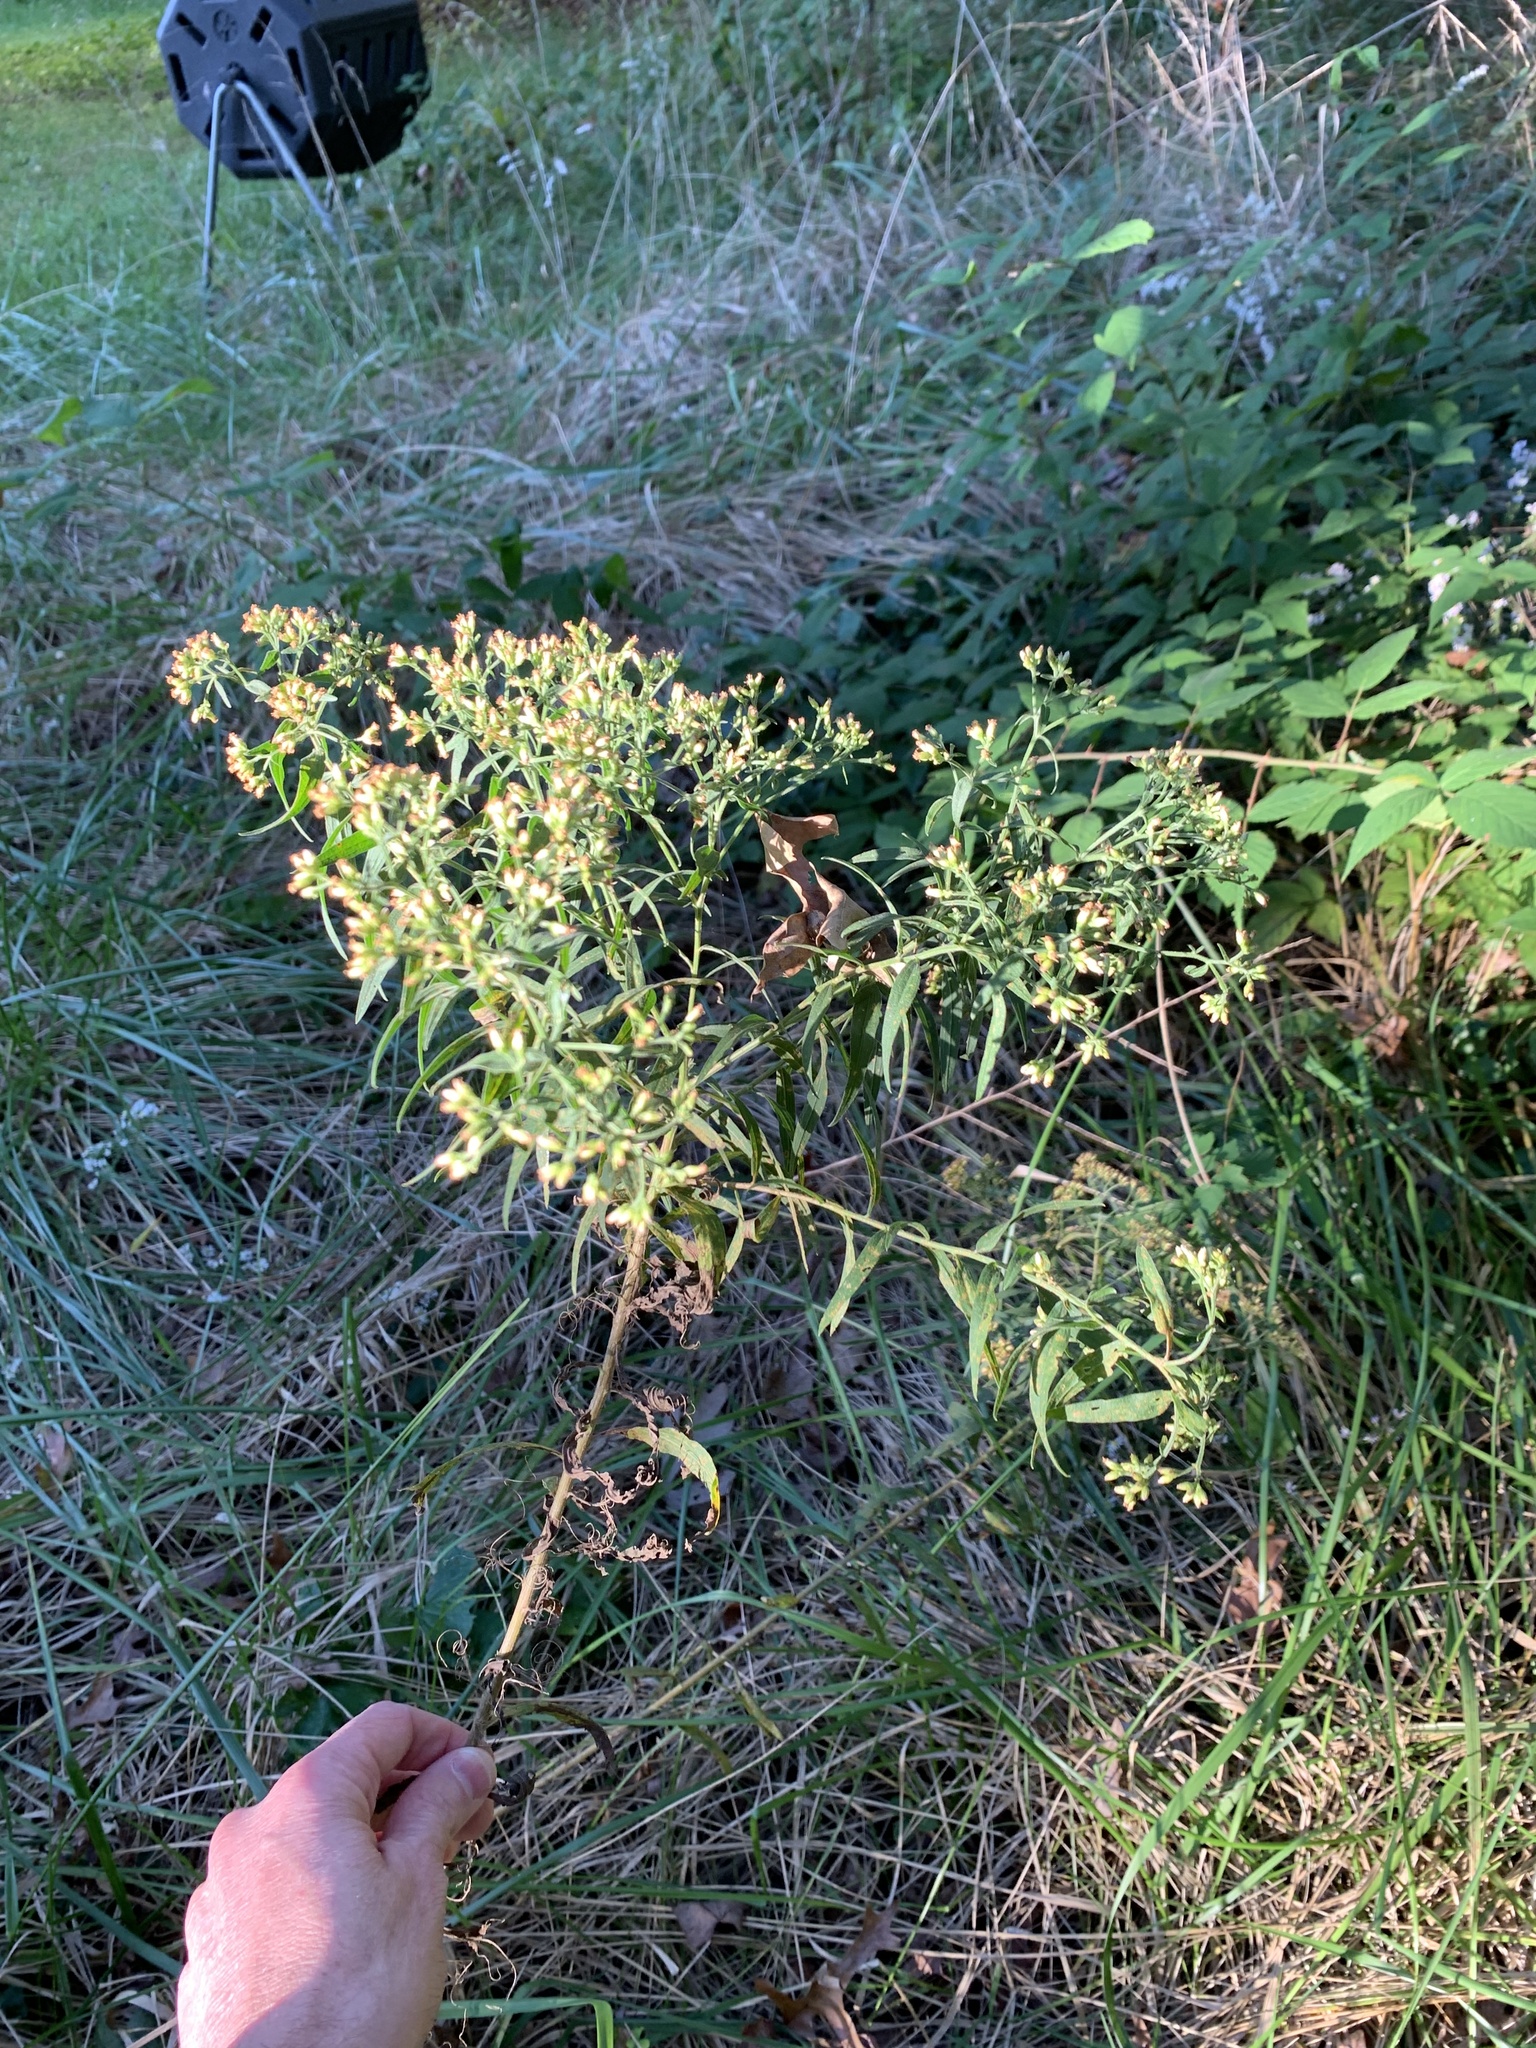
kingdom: Plantae
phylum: Tracheophyta
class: Magnoliopsida
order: Asterales
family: Asteraceae
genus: Euthamia
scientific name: Euthamia graminifolia
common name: Common goldentop
